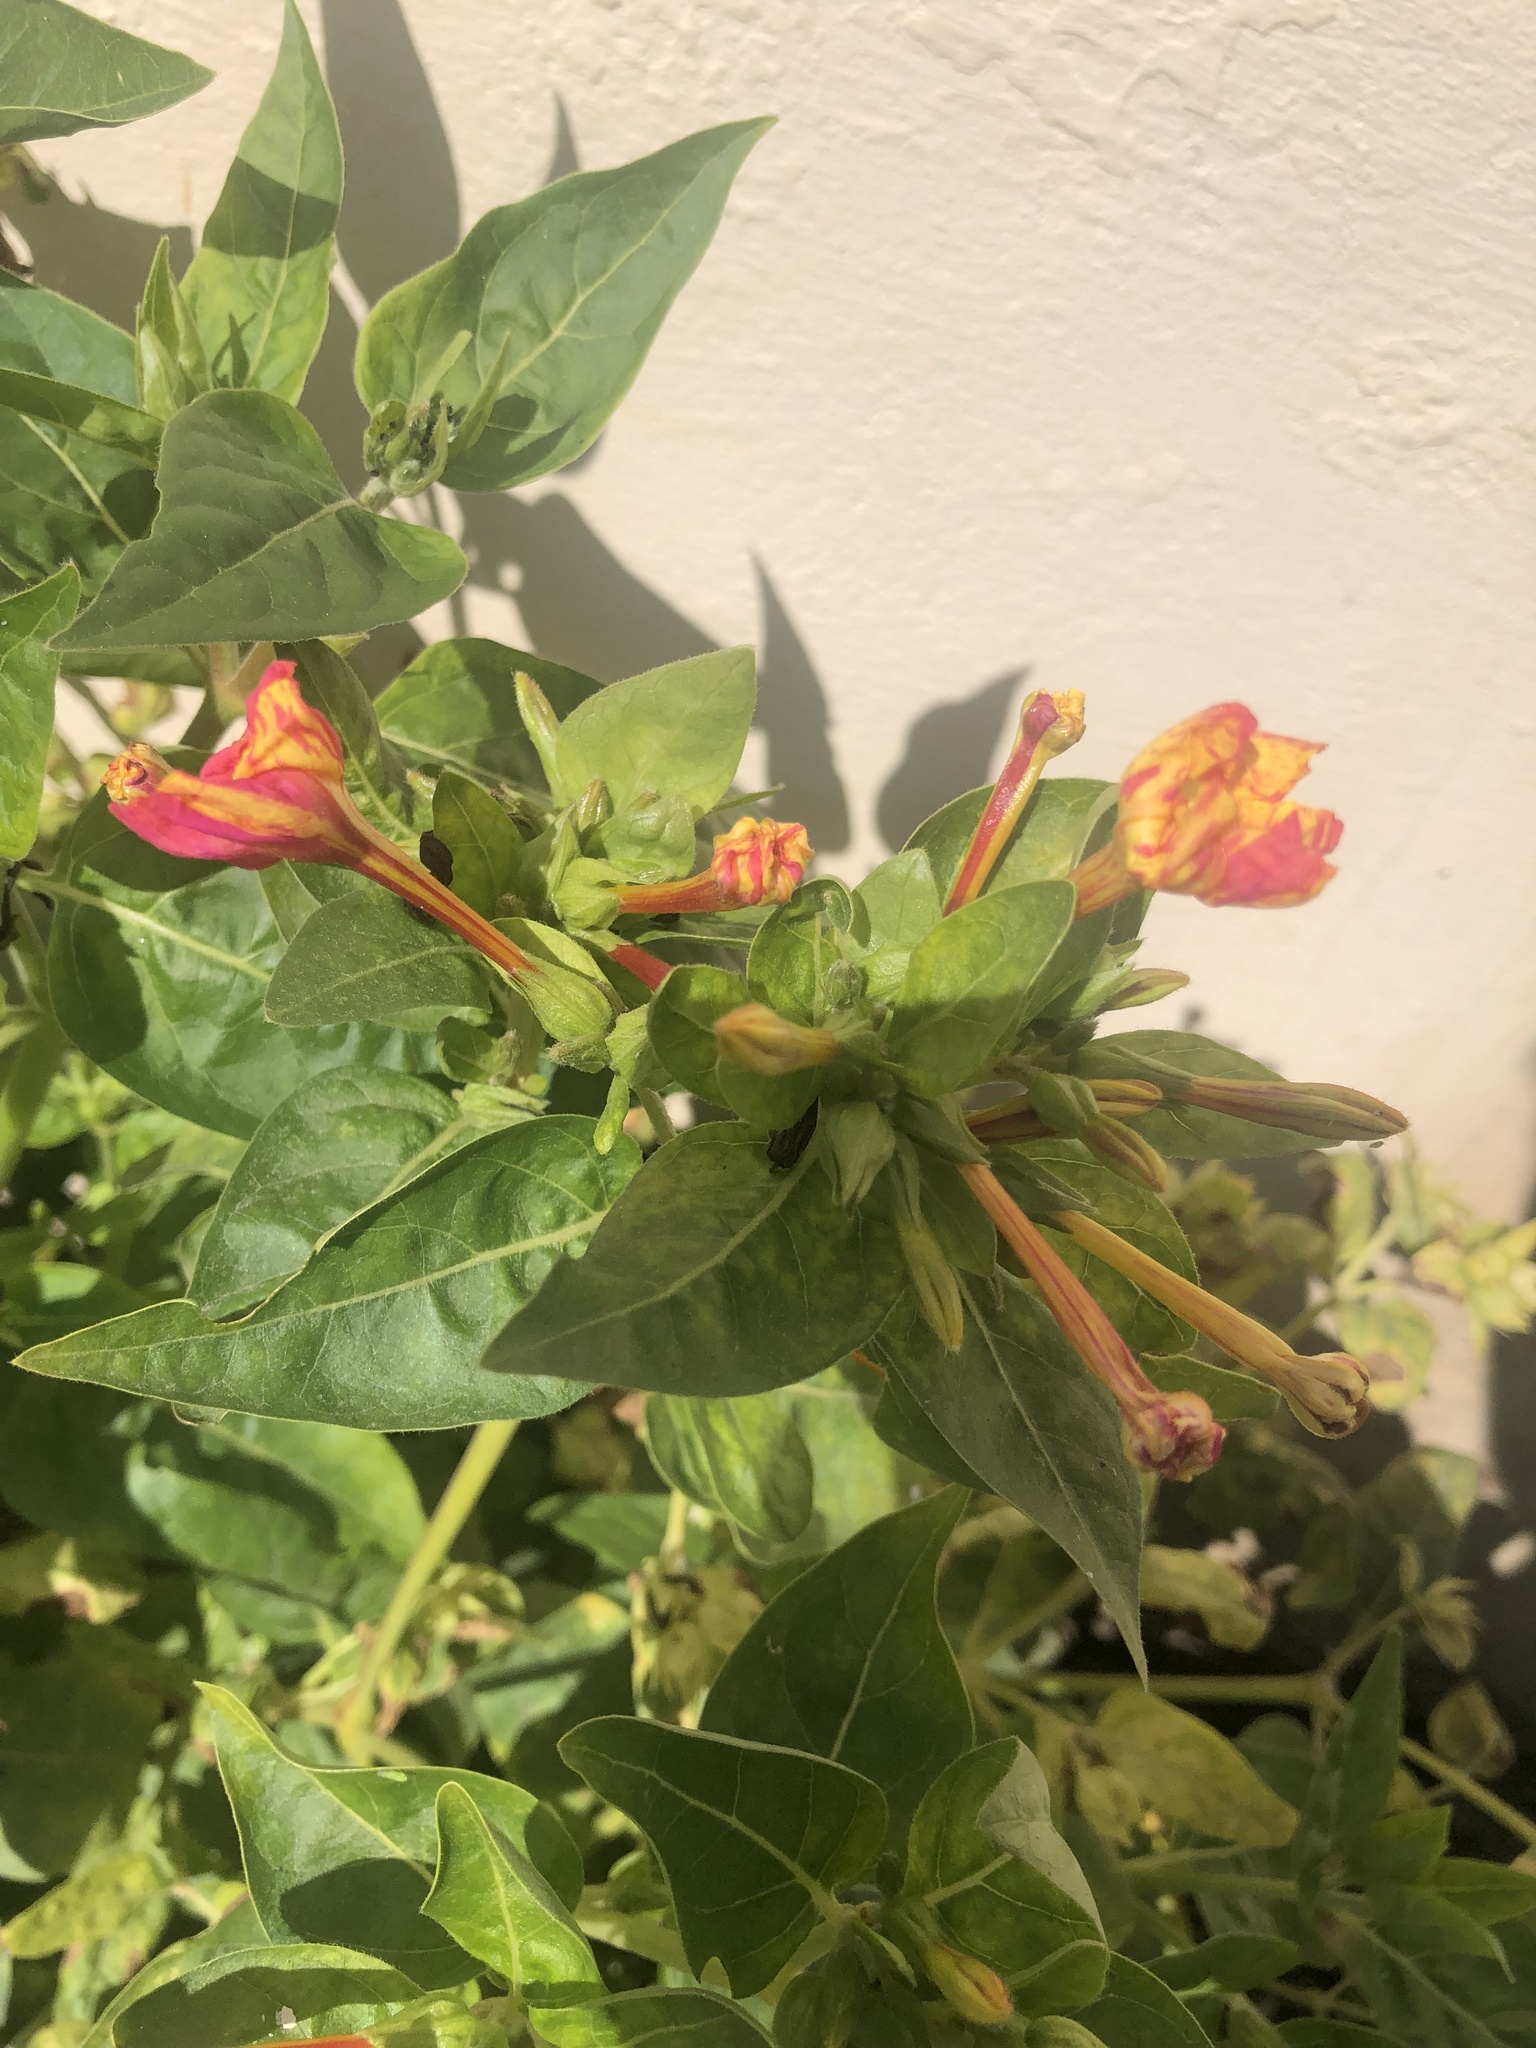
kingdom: Plantae
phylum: Tracheophyta
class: Magnoliopsida
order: Caryophyllales
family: Nyctaginaceae
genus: Mirabilis
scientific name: Mirabilis jalapa
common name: Marvel-of-peru
